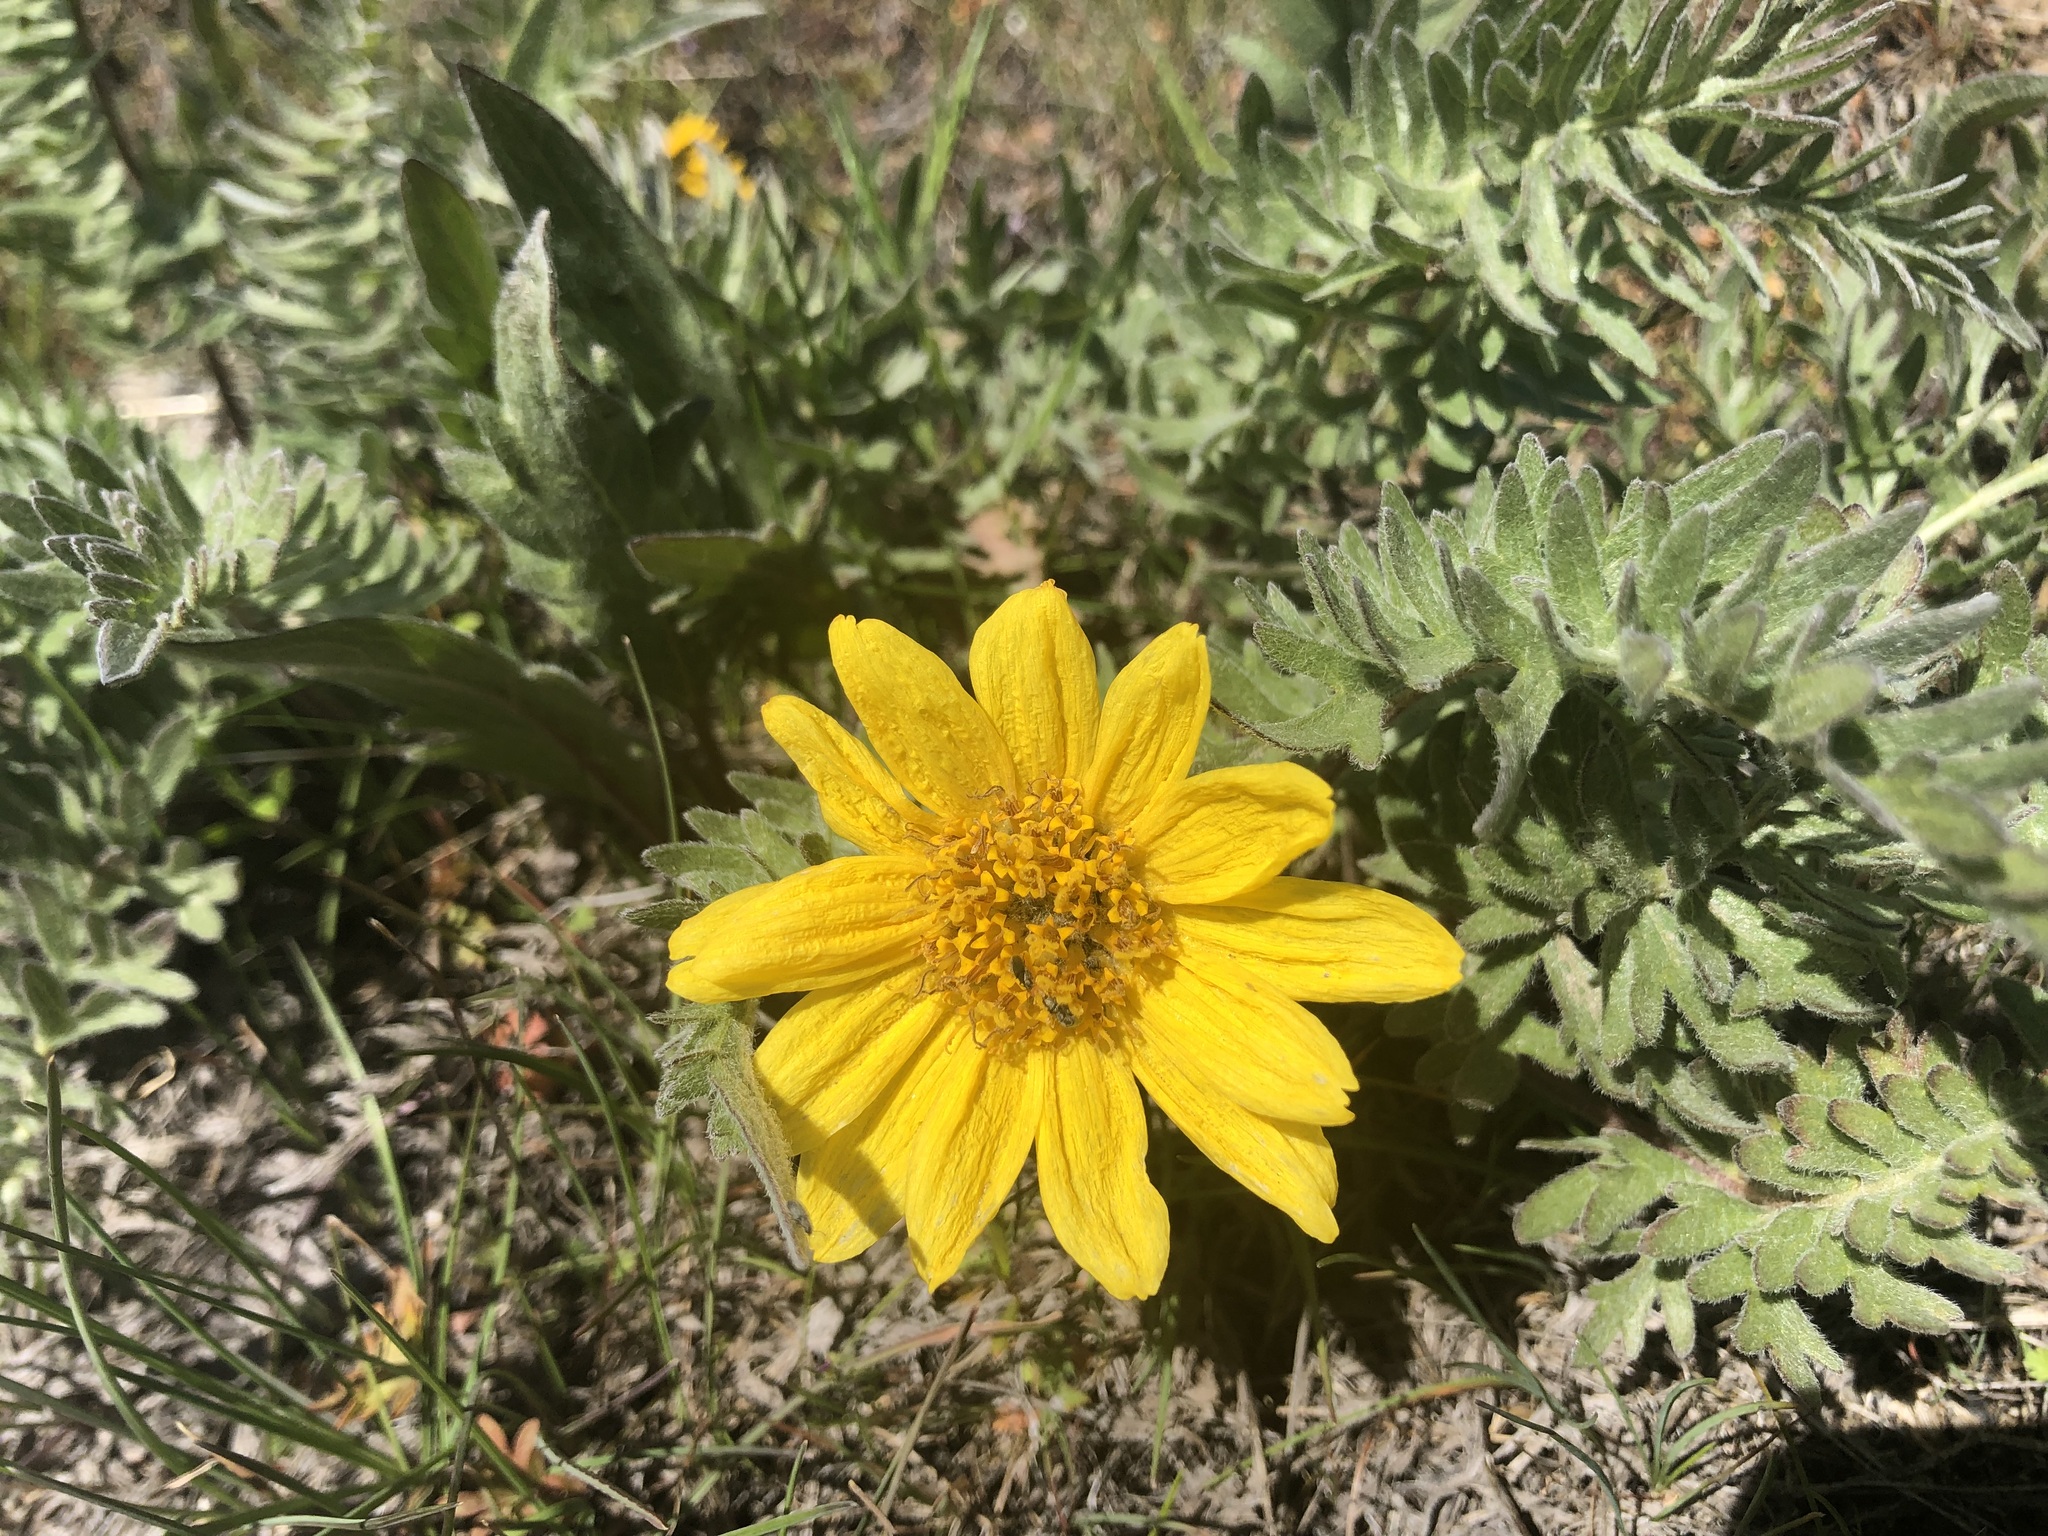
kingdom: Plantae
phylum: Tracheophyta
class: Magnoliopsida
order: Asterales
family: Asteraceae
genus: Balsamorhiza
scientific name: Balsamorhiza hookeri
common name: Hooker's balsamroot
